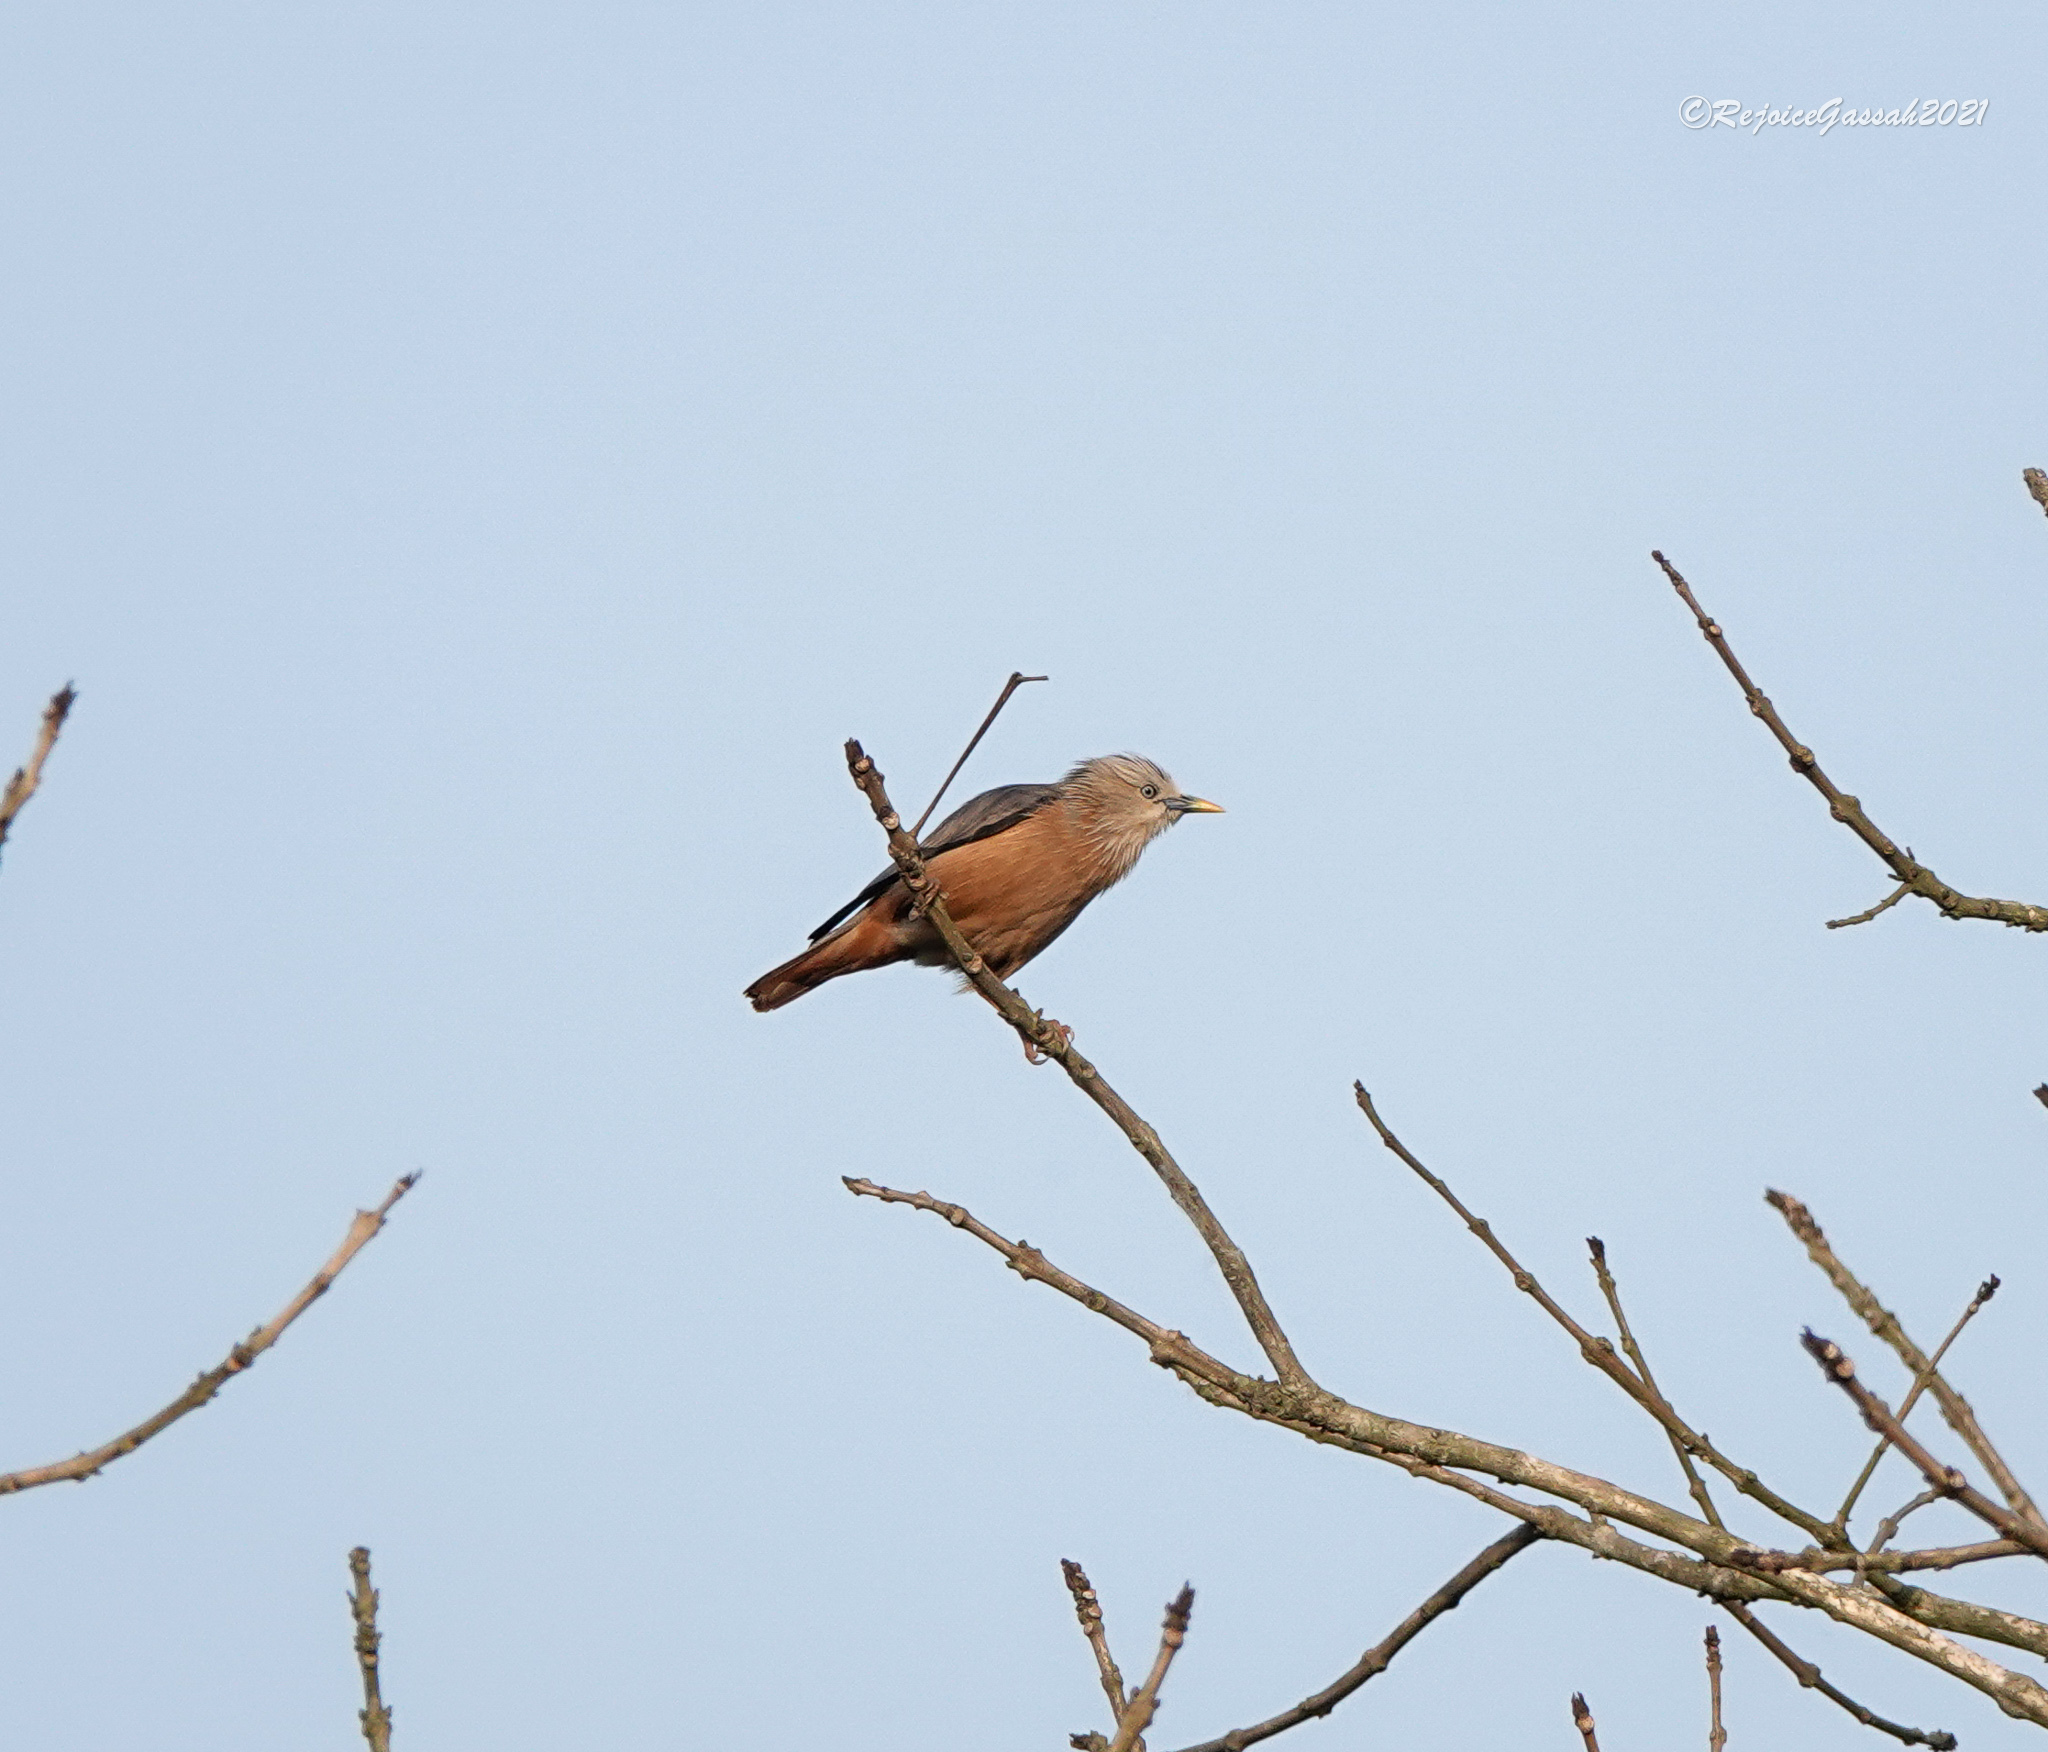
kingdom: Animalia
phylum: Chordata
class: Aves
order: Passeriformes
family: Sturnidae
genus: Sturnia
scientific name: Sturnia malabarica
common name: Chestnut-tailed starling
